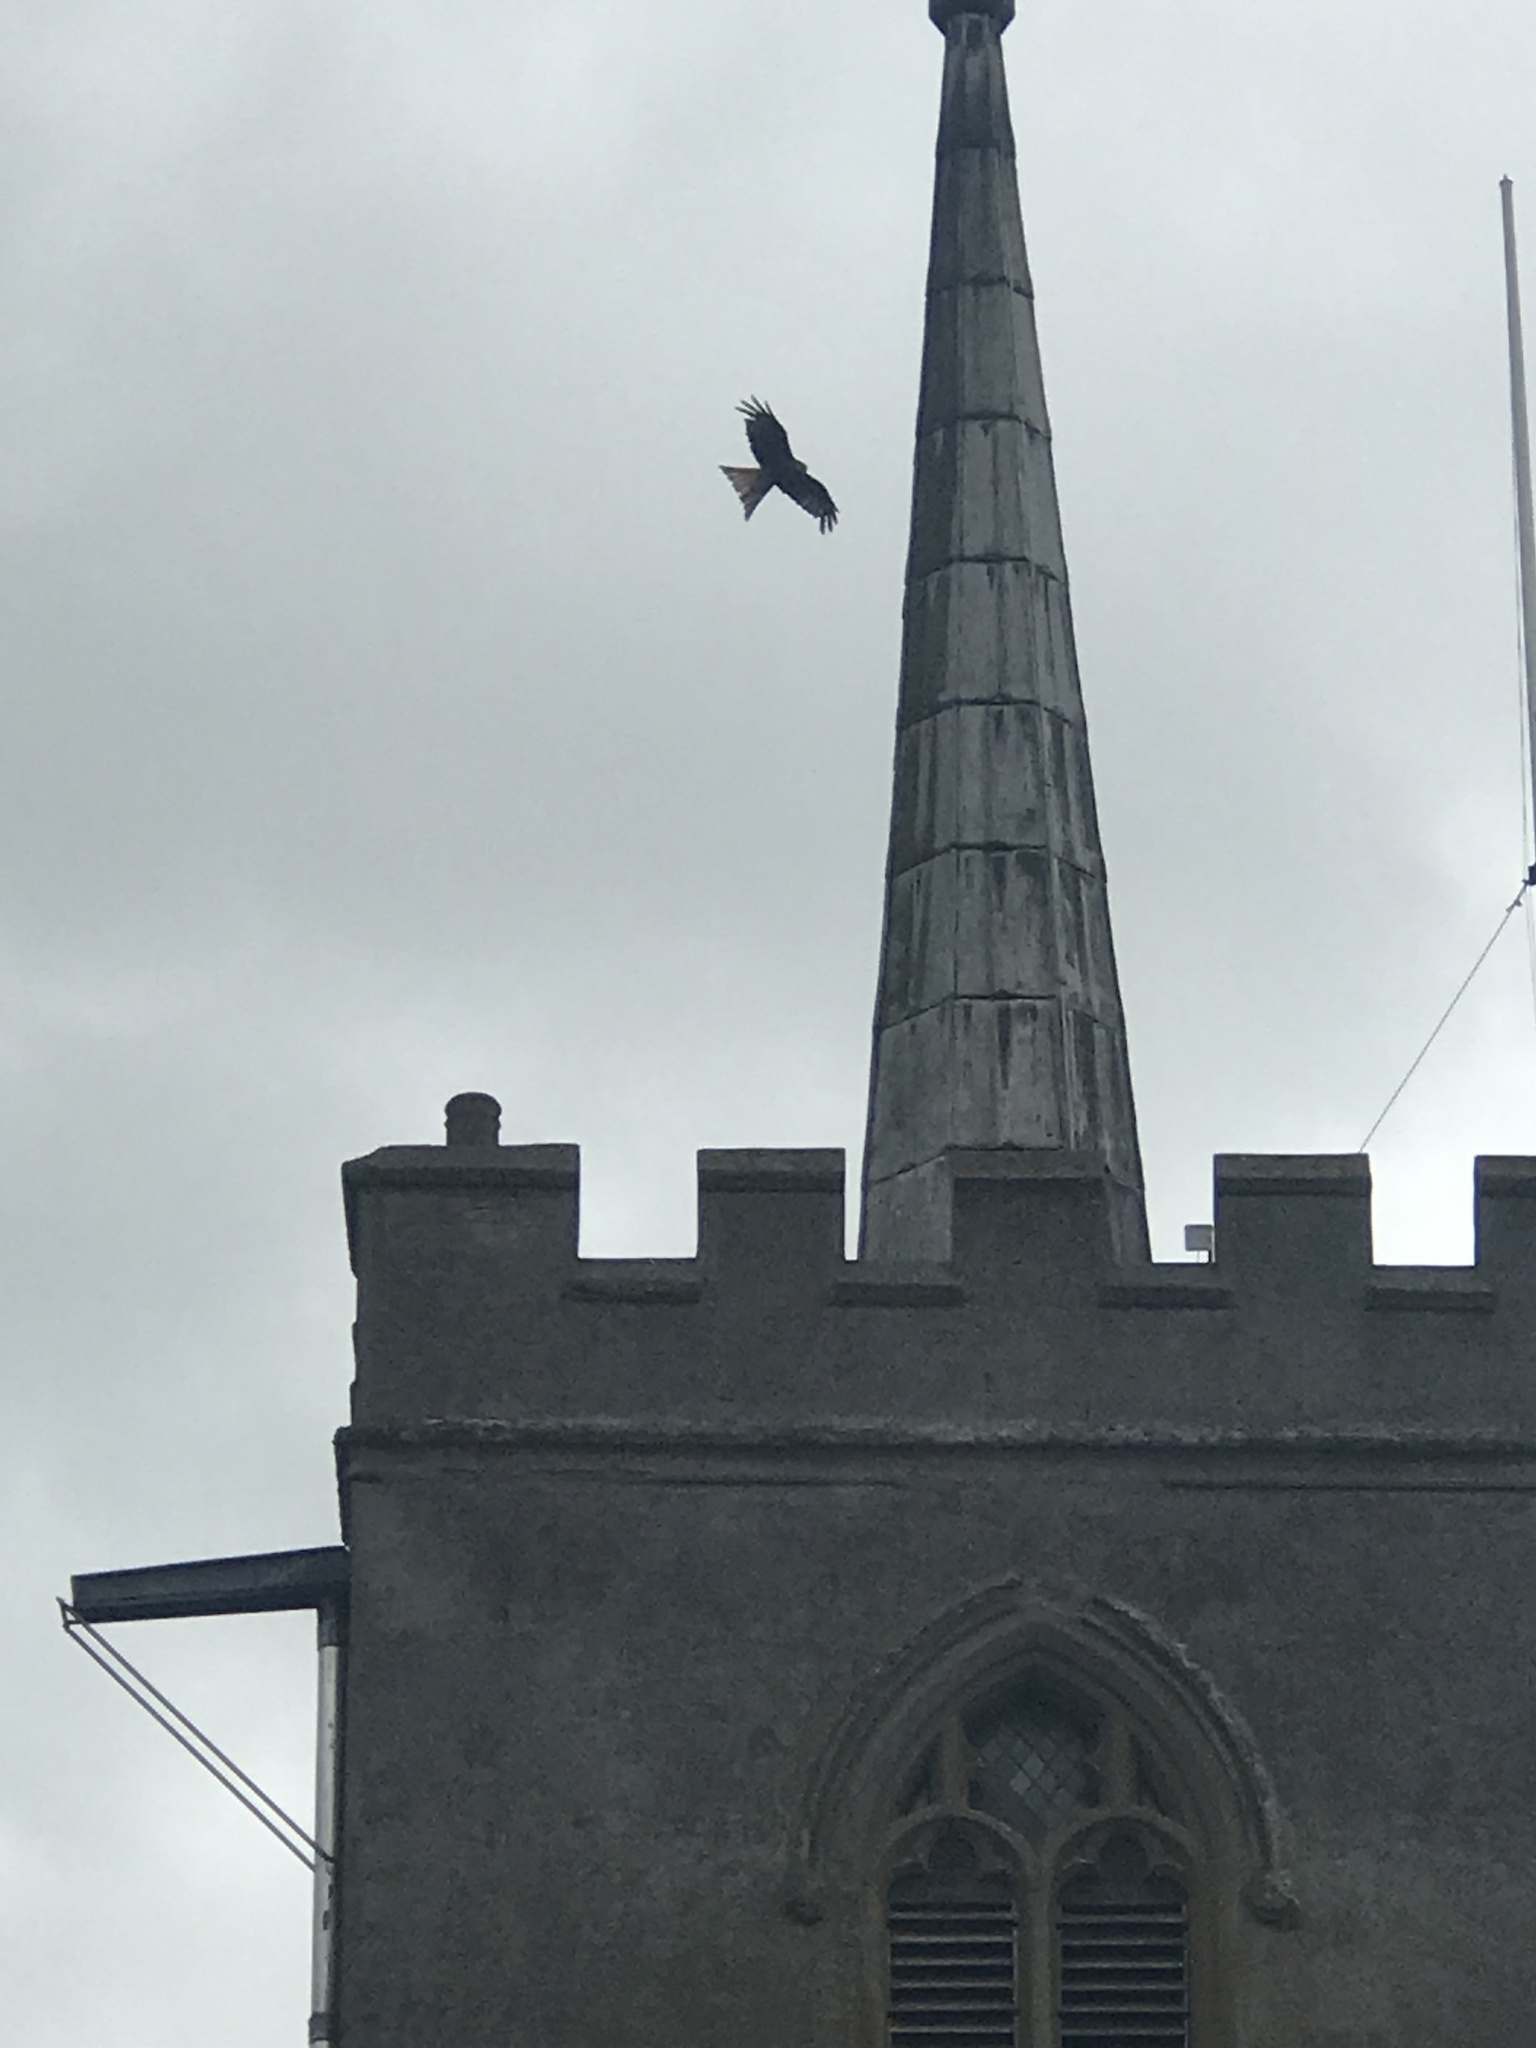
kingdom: Animalia
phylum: Chordata
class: Aves
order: Accipitriformes
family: Accipitridae
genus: Milvus
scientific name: Milvus milvus
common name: Red kite
